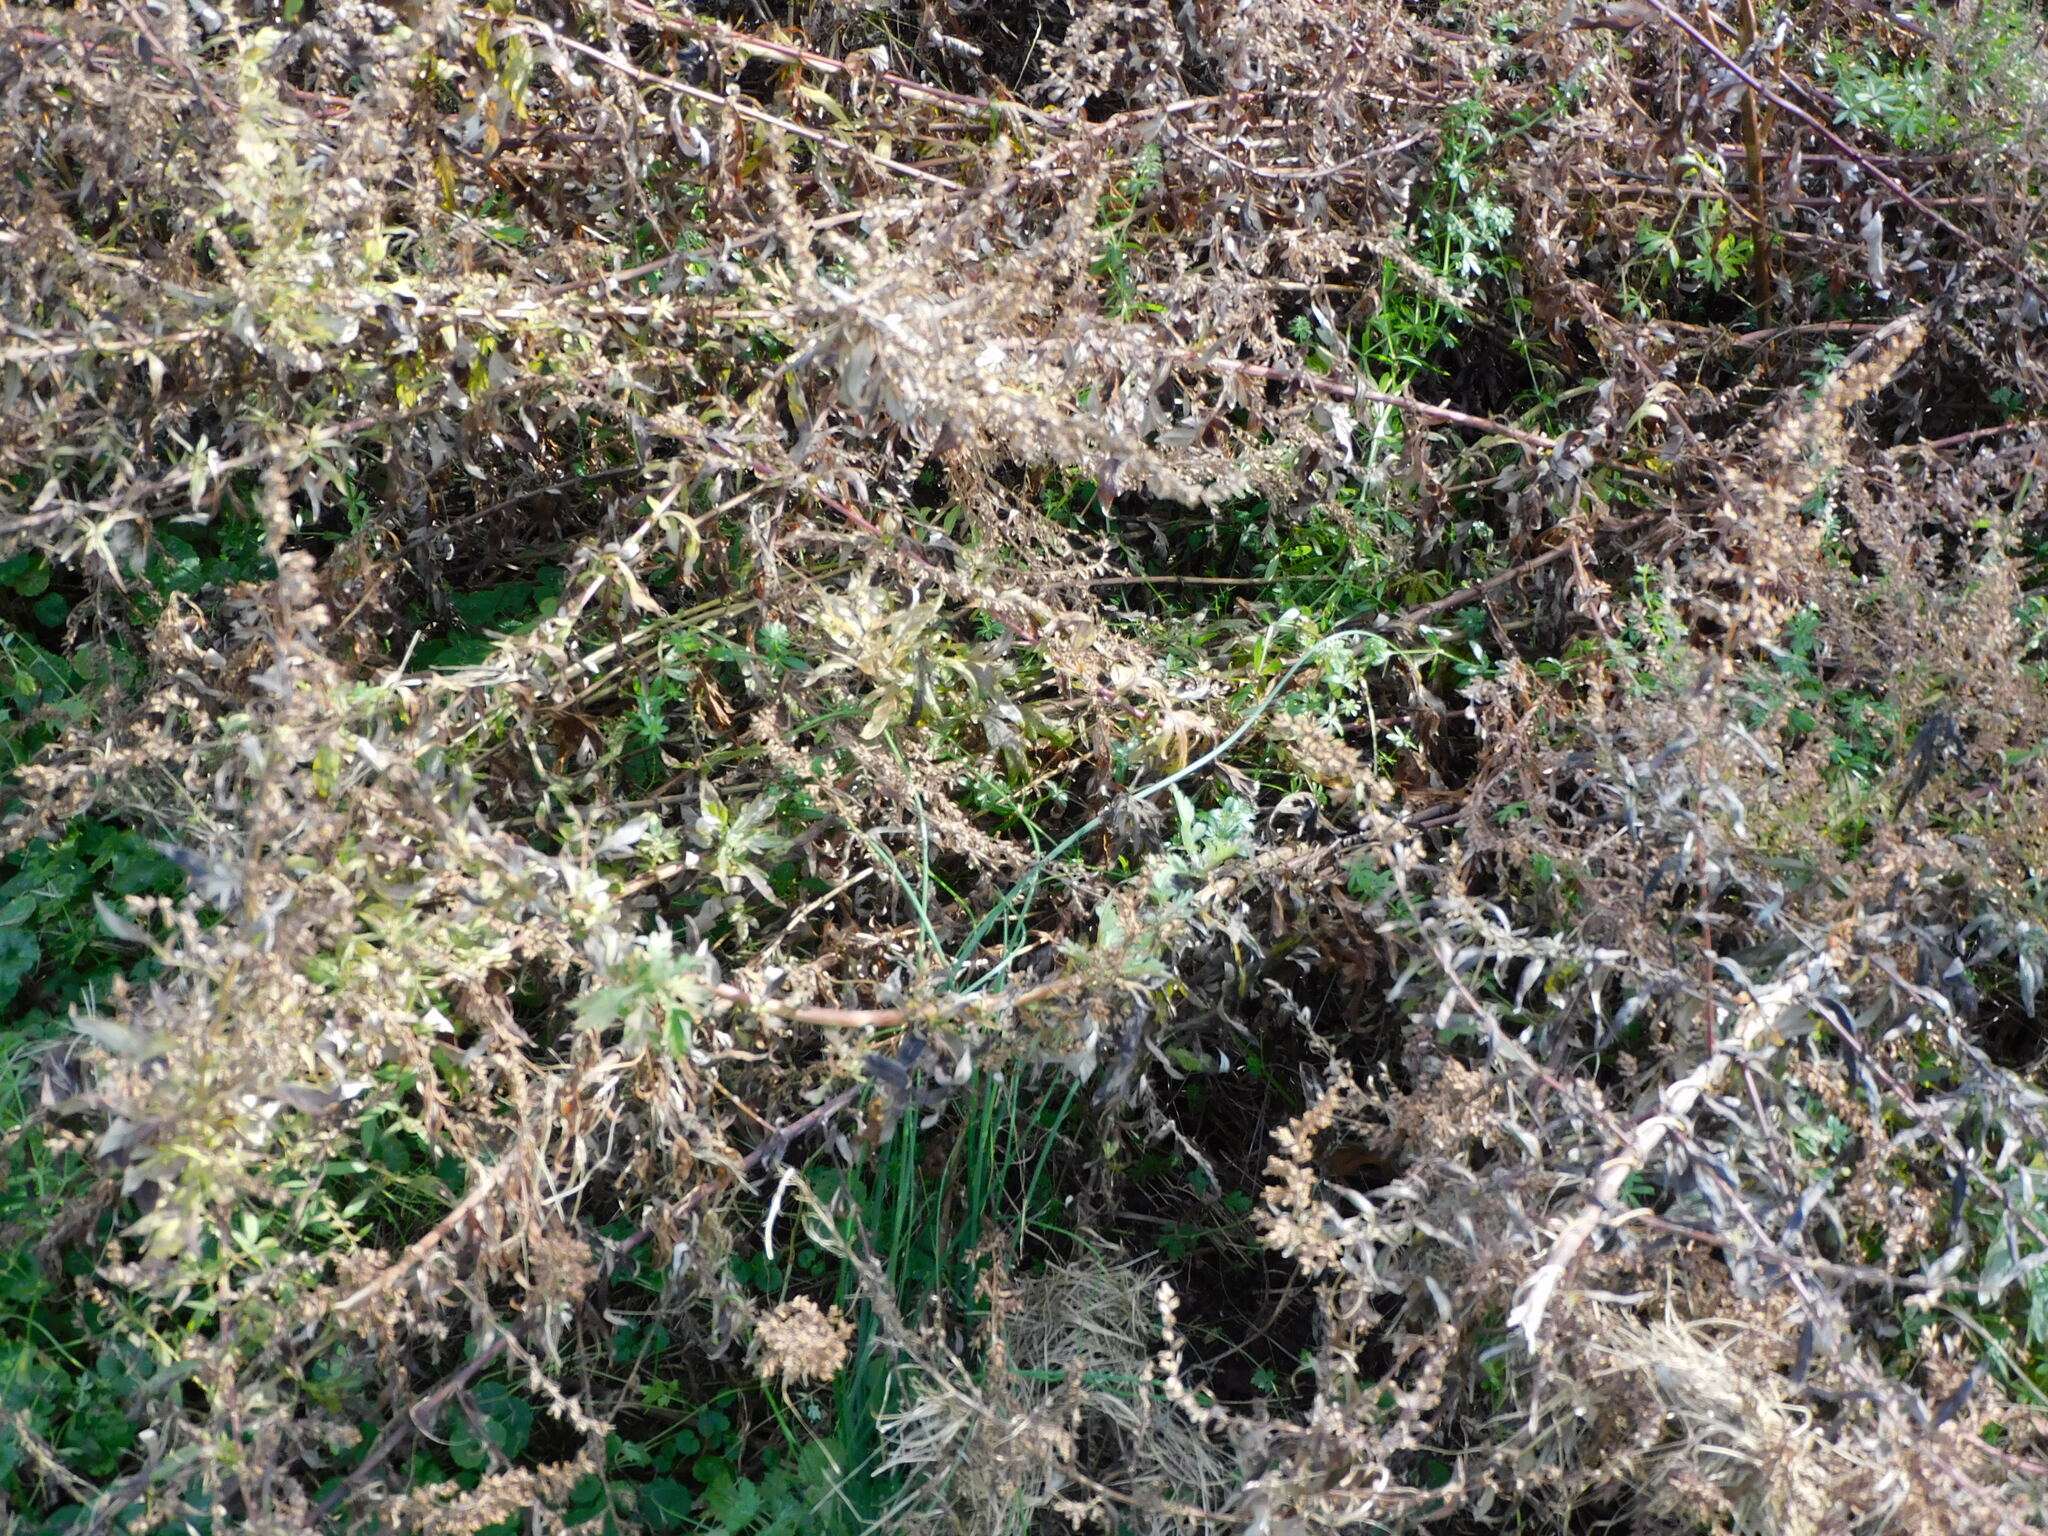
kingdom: Plantae
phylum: Tracheophyta
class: Magnoliopsida
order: Asterales
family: Asteraceae
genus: Artemisia
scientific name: Artemisia vulgaris
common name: Mugwort
